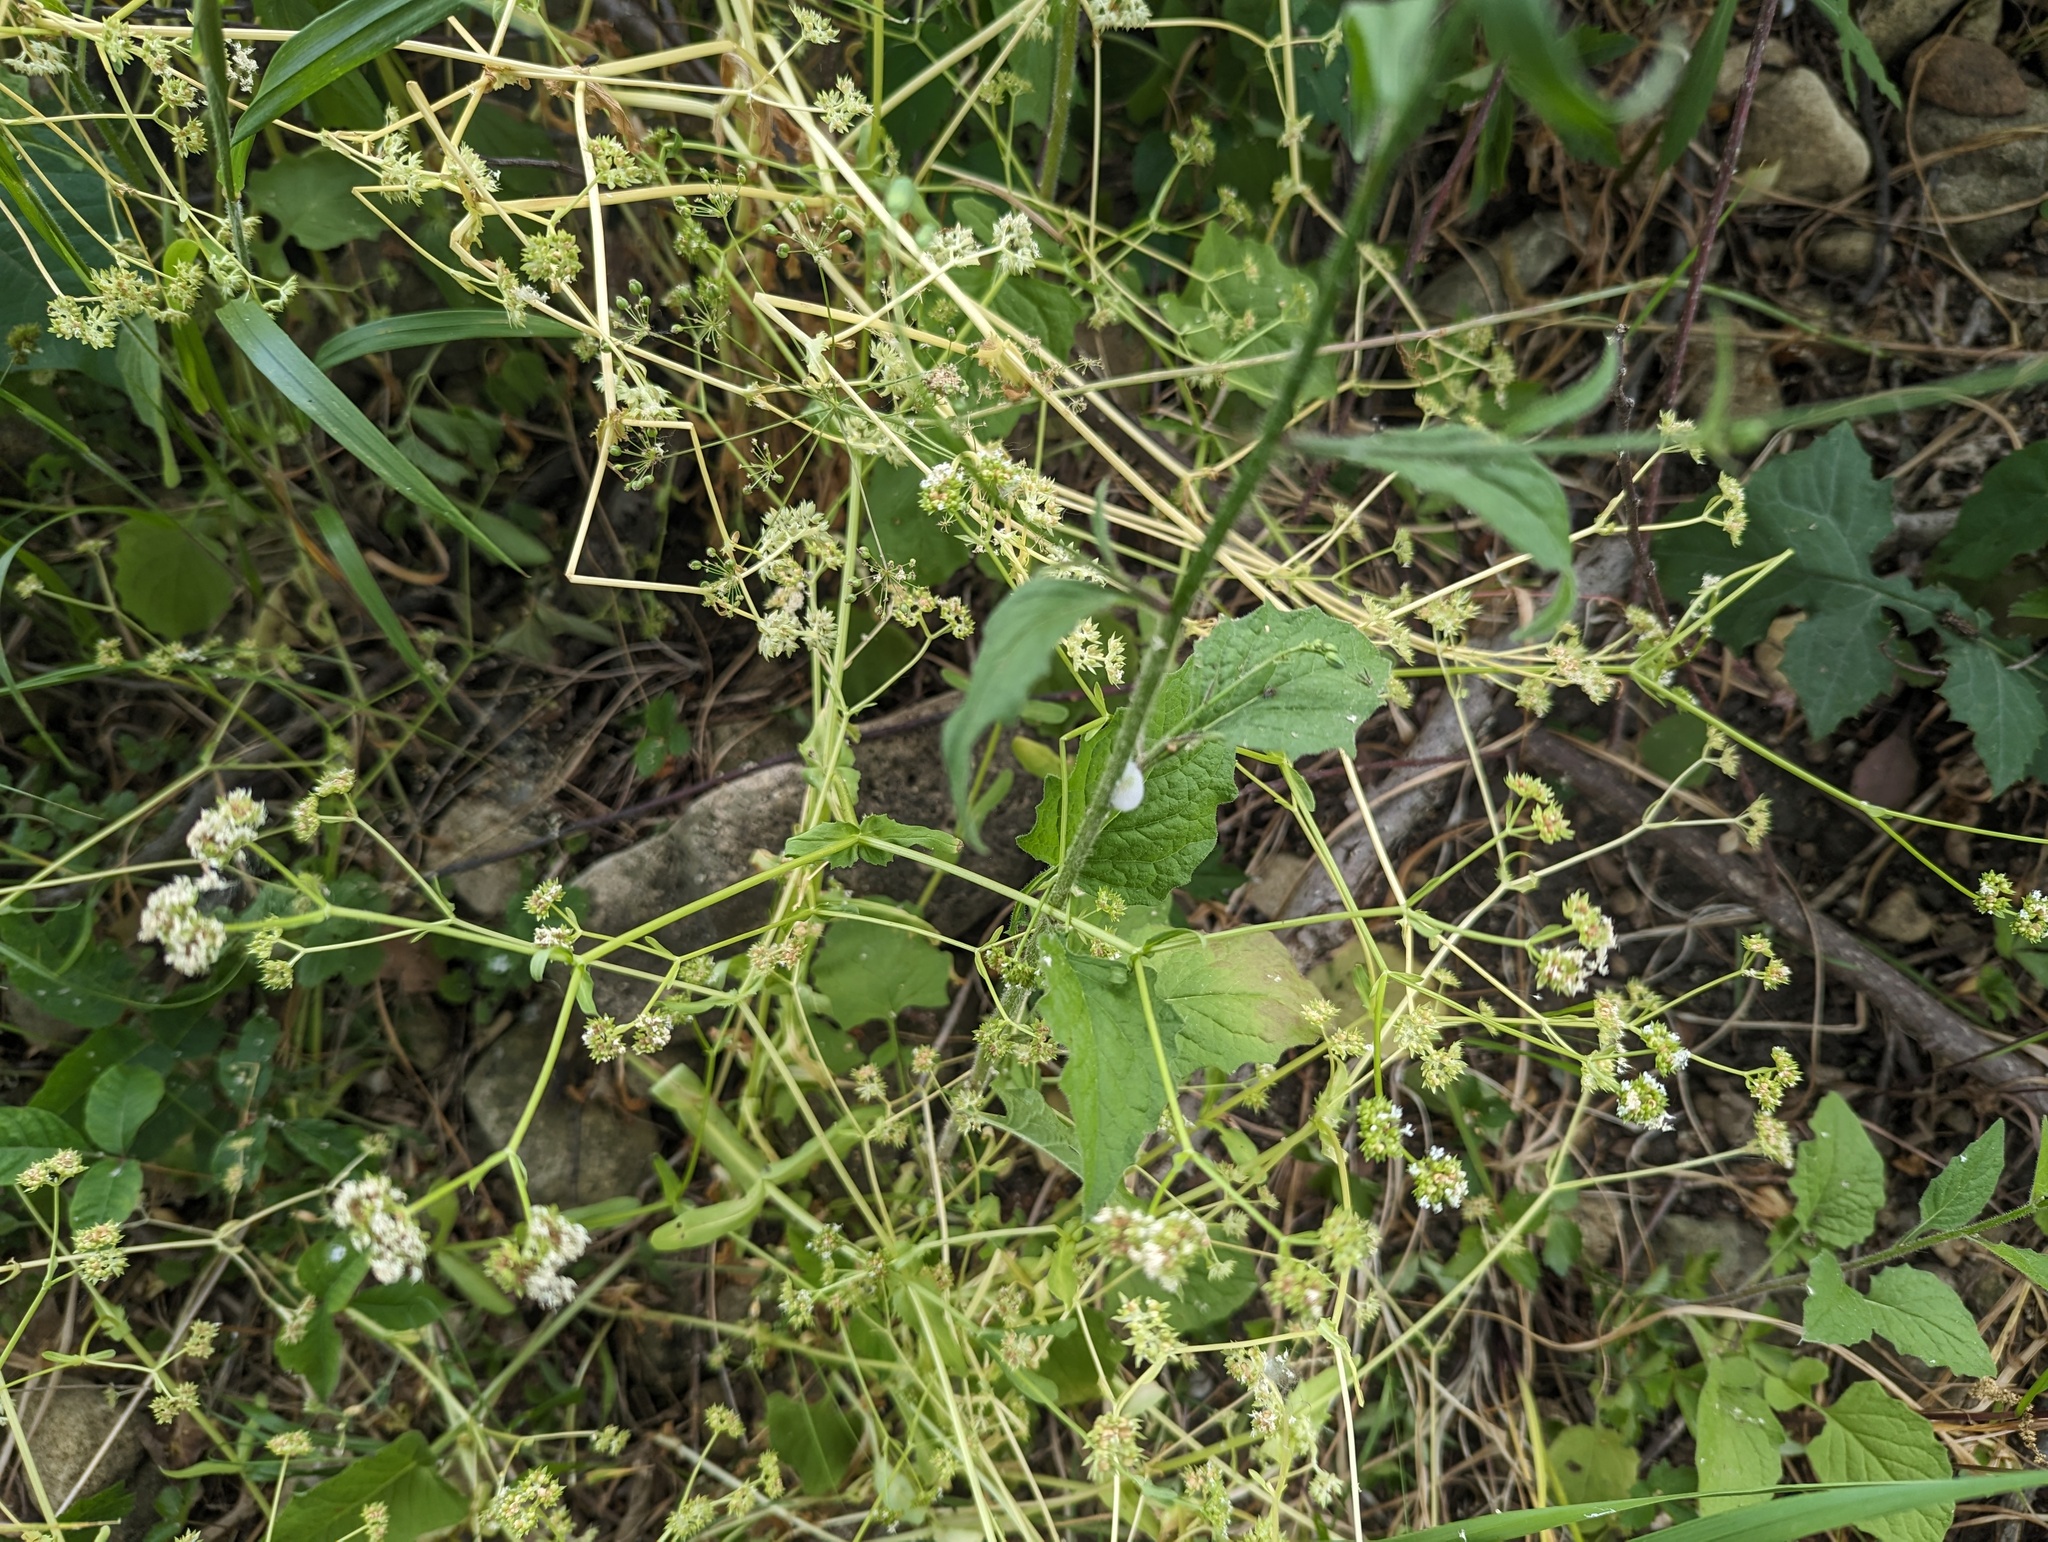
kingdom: Plantae
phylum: Tracheophyta
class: Magnoliopsida
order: Asterales
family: Asteraceae
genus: Lapsana
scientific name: Lapsana communis
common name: Nipplewort
